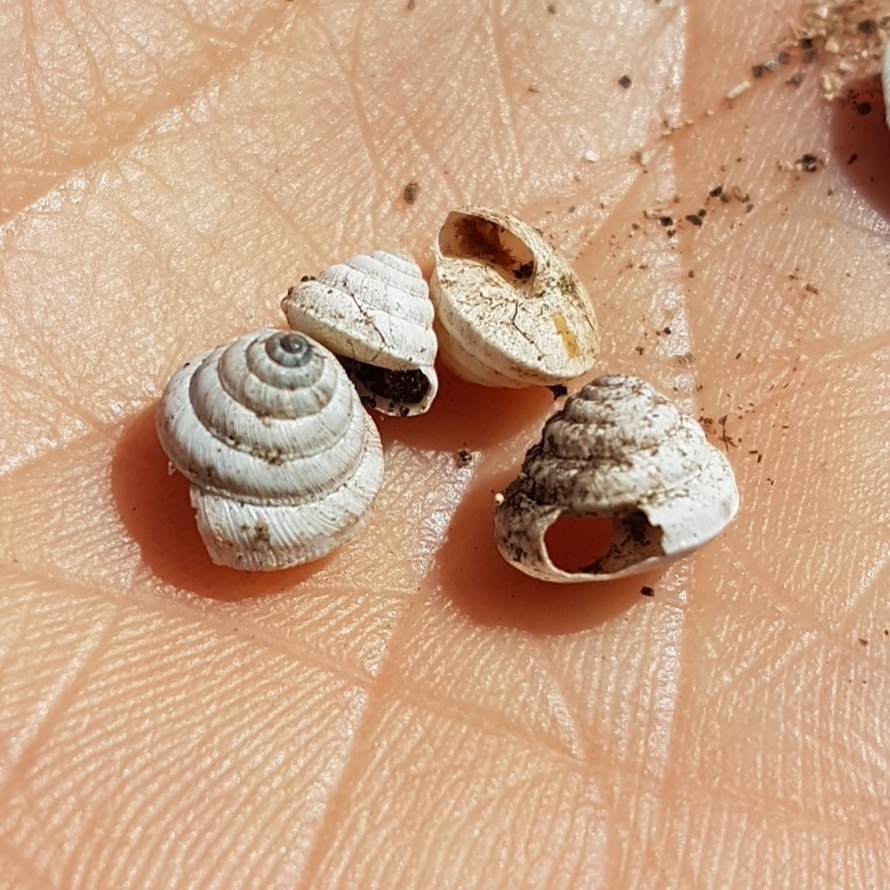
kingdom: Animalia
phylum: Mollusca
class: Gastropoda
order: Stylommatophora
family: Geomitridae
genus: Trochoidea
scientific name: Trochoidea trochoides
